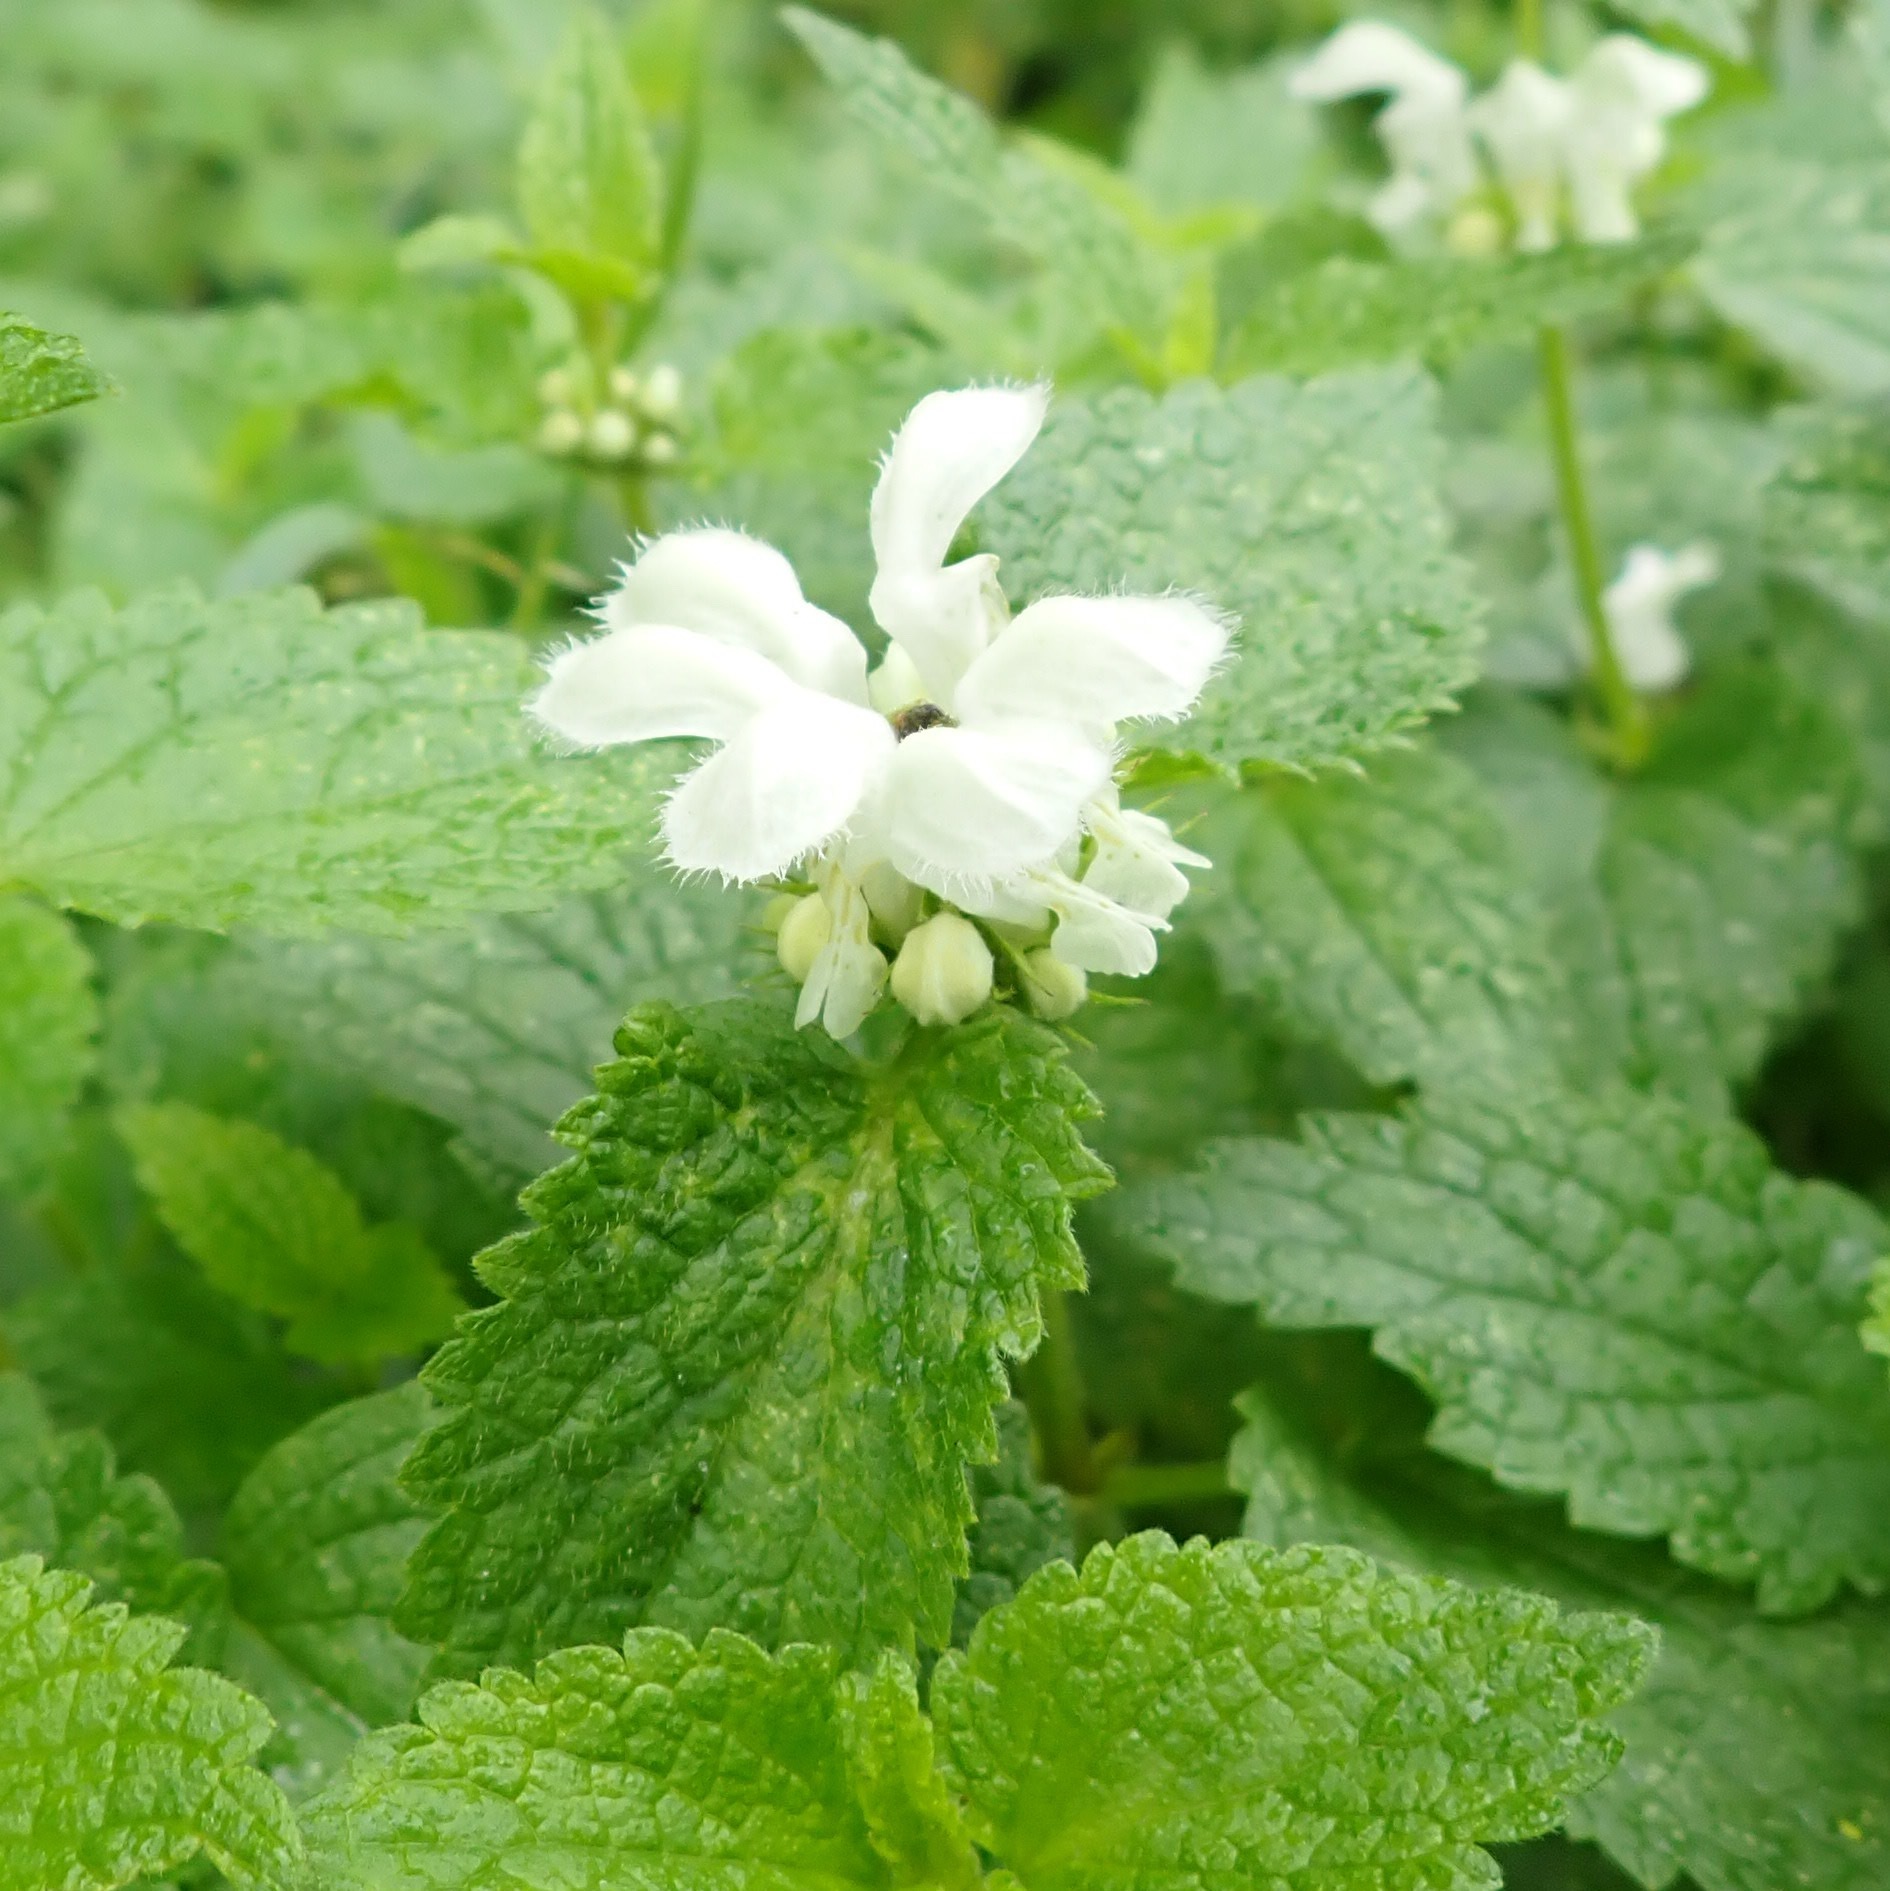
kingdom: Plantae
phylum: Tracheophyta
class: Magnoliopsida
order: Lamiales
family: Lamiaceae
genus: Lamium
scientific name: Lamium album
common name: White dead-nettle
